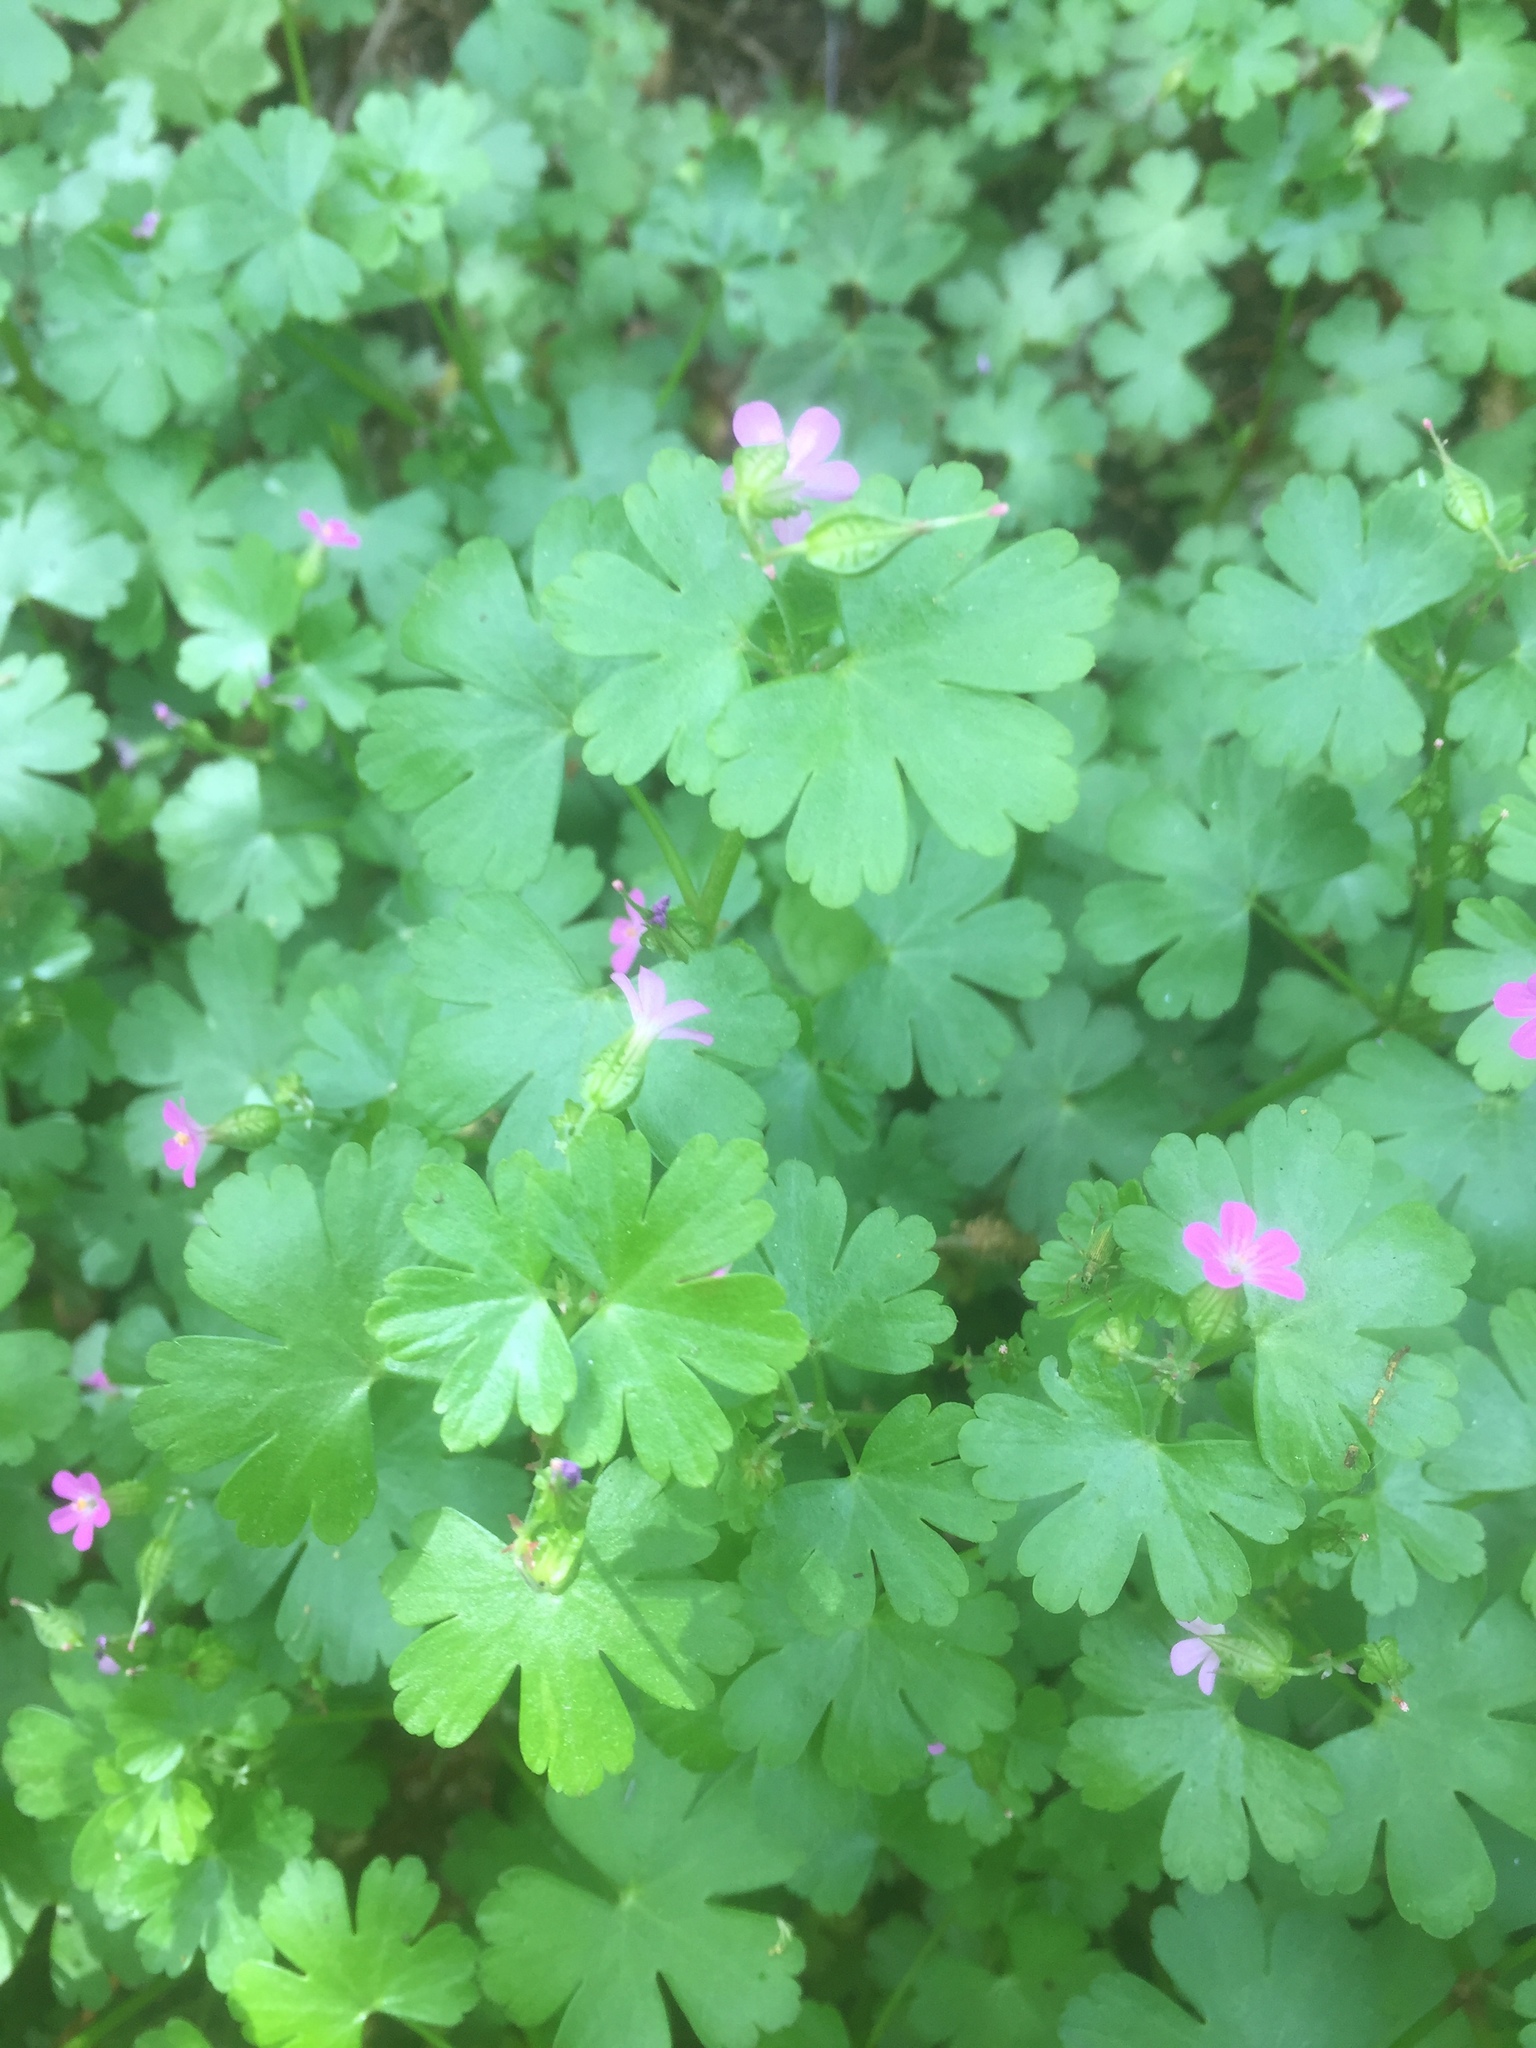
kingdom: Plantae
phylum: Tracheophyta
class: Magnoliopsida
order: Geraniales
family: Geraniaceae
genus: Geranium
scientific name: Geranium lucidum
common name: Shining crane's-bill
